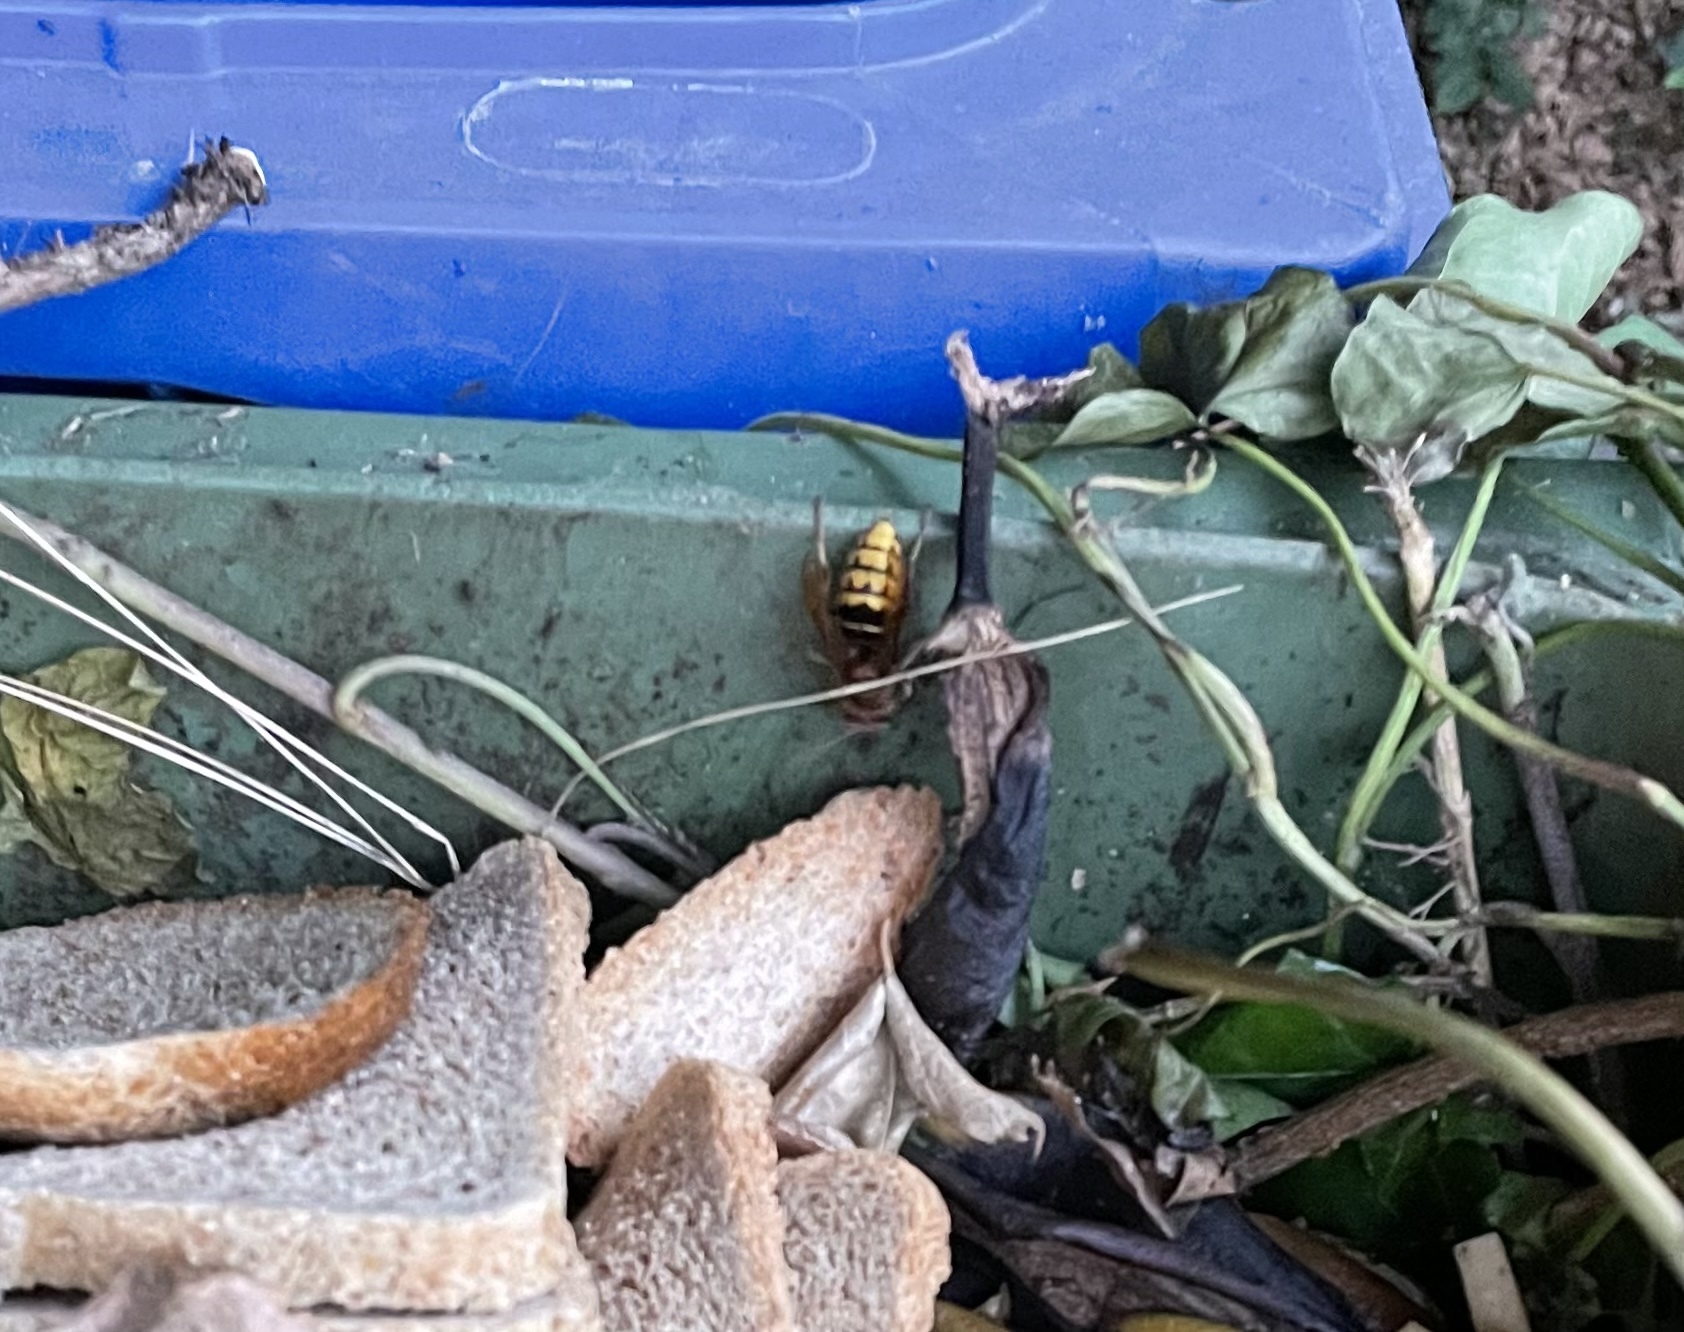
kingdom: Animalia
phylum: Arthropoda
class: Insecta
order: Hymenoptera
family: Vespidae
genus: Vespa
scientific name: Vespa crabro
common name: Hornet
